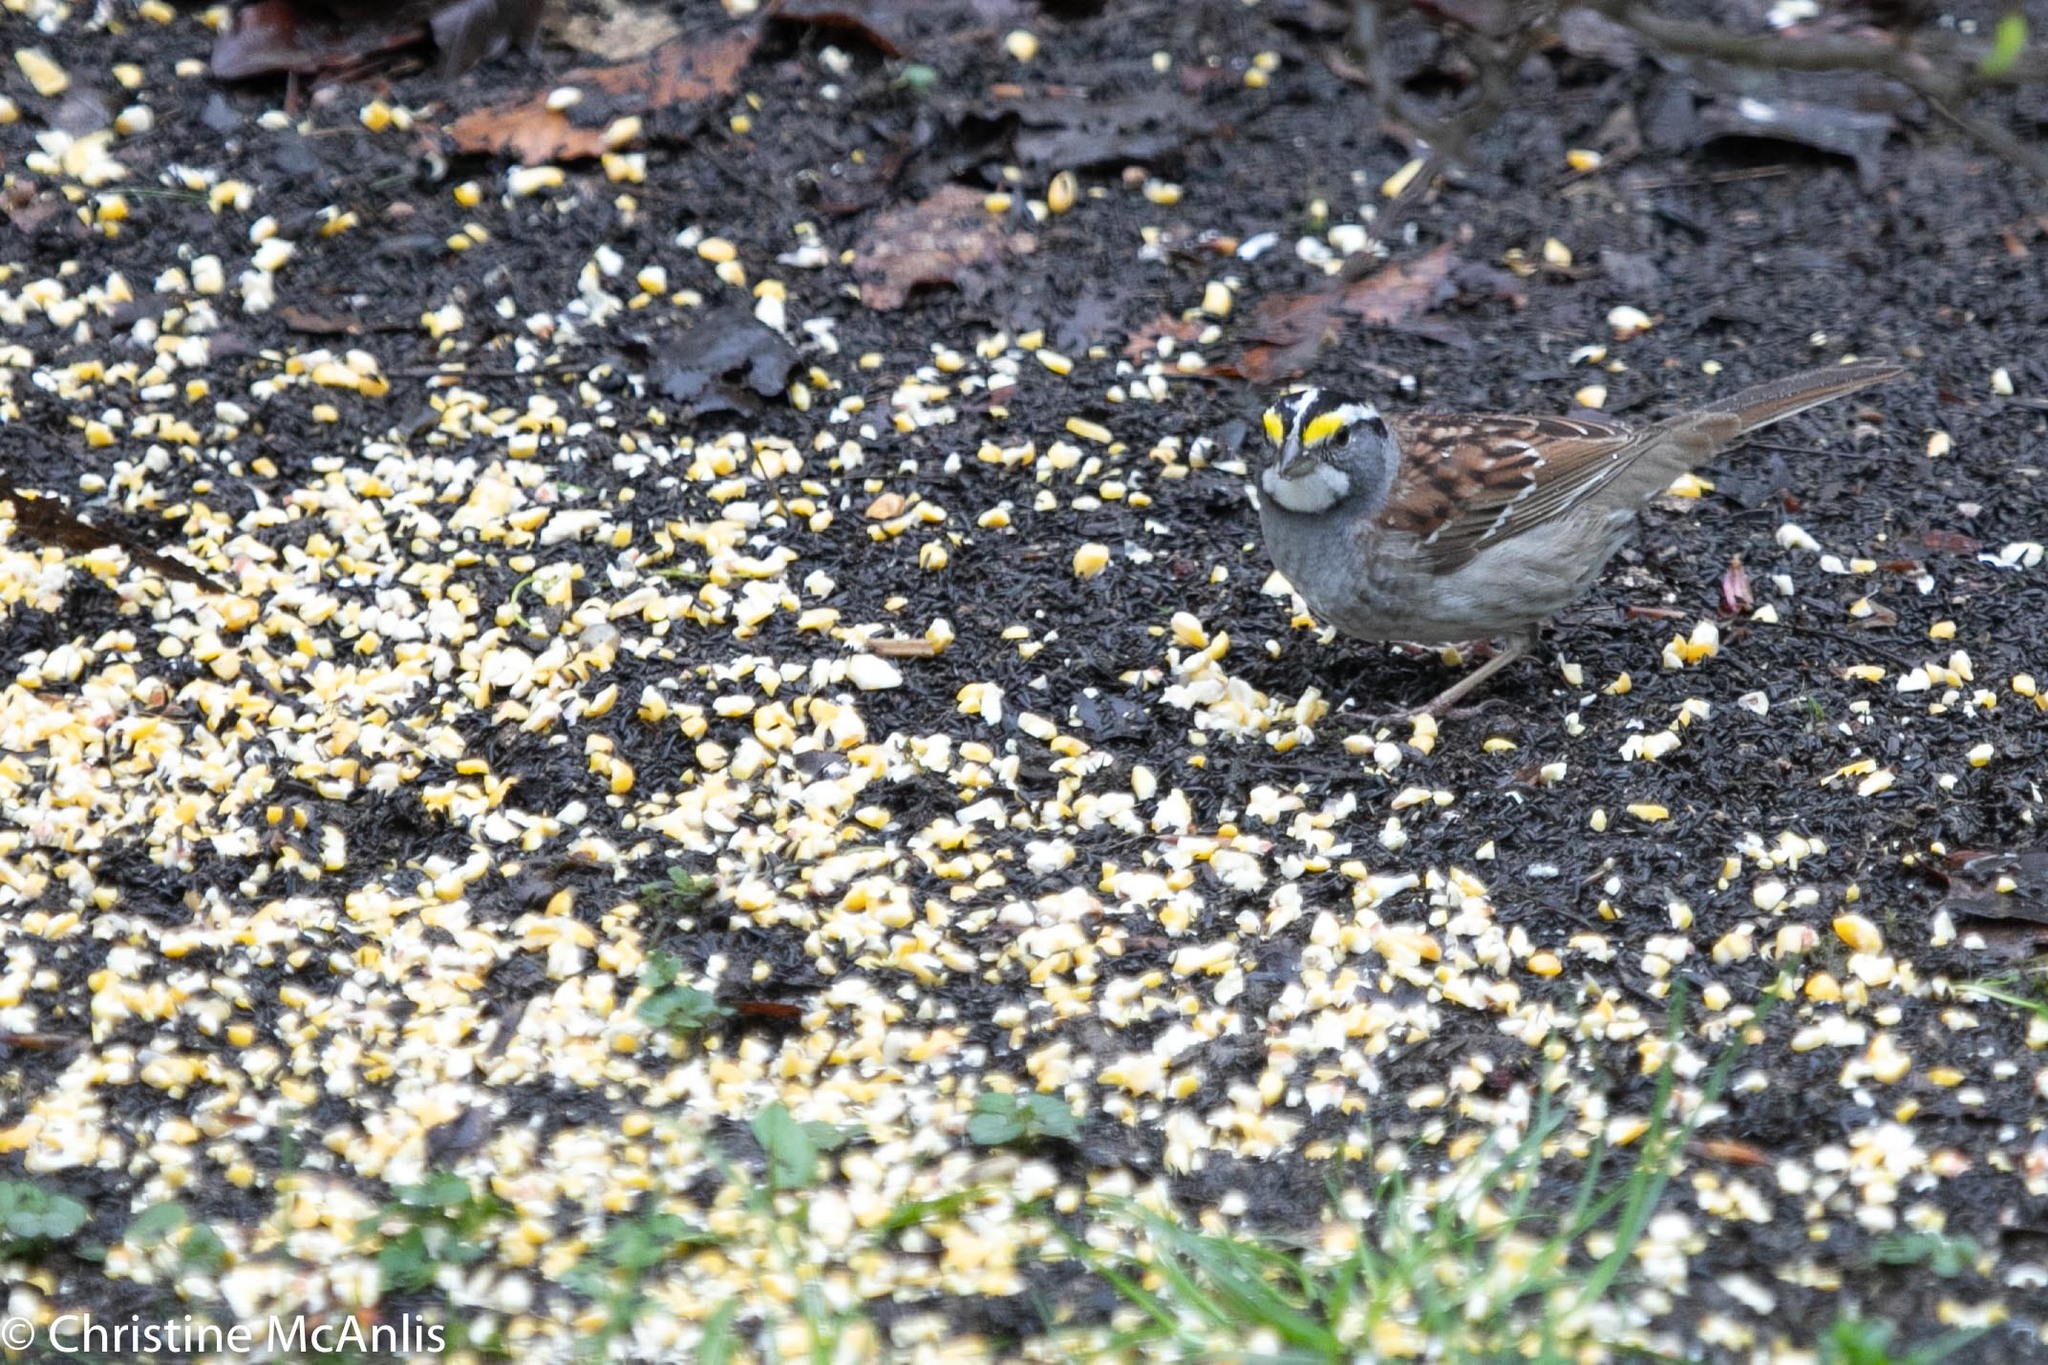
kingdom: Animalia
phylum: Chordata
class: Aves
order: Passeriformes
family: Passerellidae
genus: Zonotrichia
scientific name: Zonotrichia albicollis
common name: White-throated sparrow
